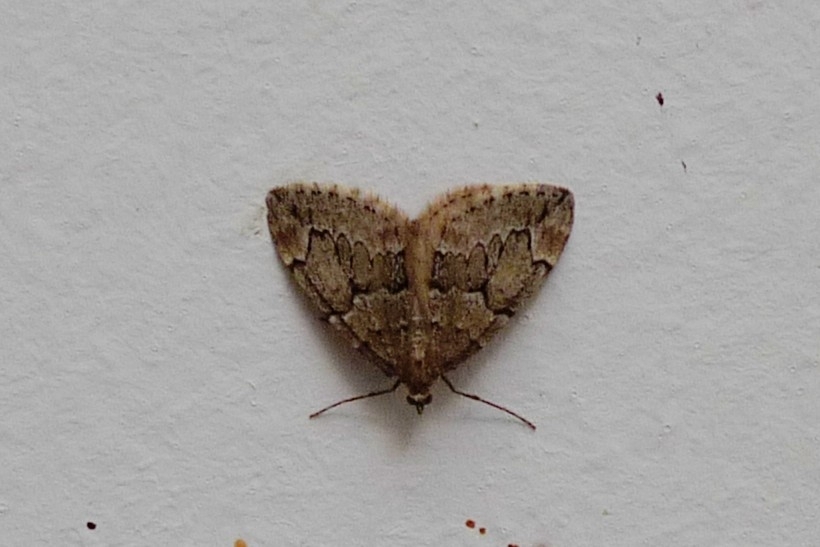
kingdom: Animalia
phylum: Arthropoda
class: Insecta
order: Lepidoptera
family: Geometridae
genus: Thera
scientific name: Thera juniperata
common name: Juniper carpet
